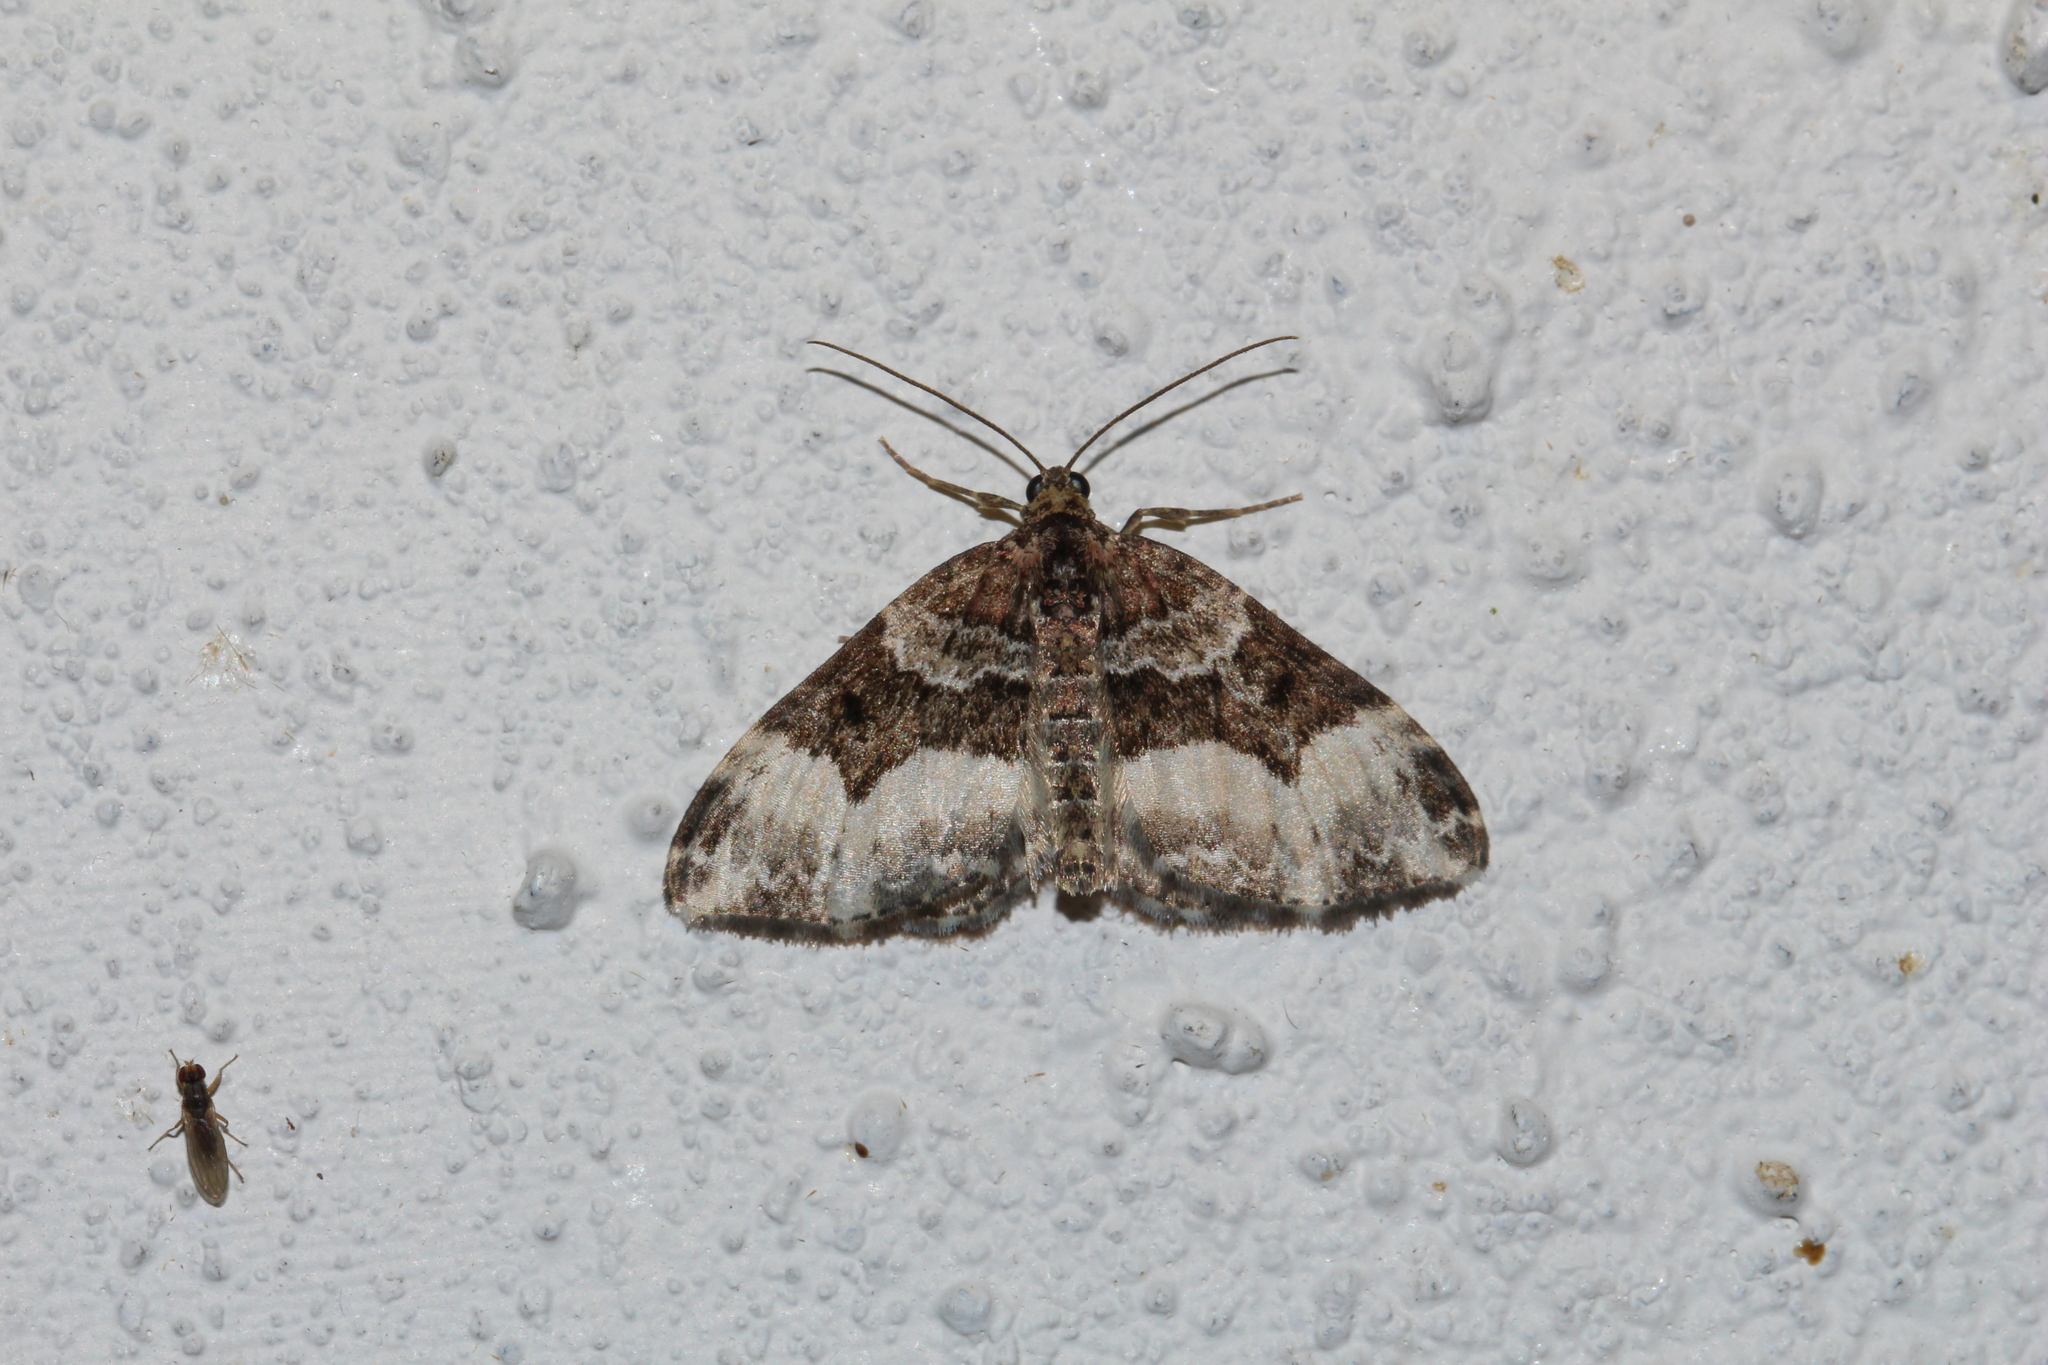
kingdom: Animalia
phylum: Arthropoda
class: Insecta
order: Lepidoptera
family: Geometridae
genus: Euphyia
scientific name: Euphyia unangulata
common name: Sharp-angled carpet
